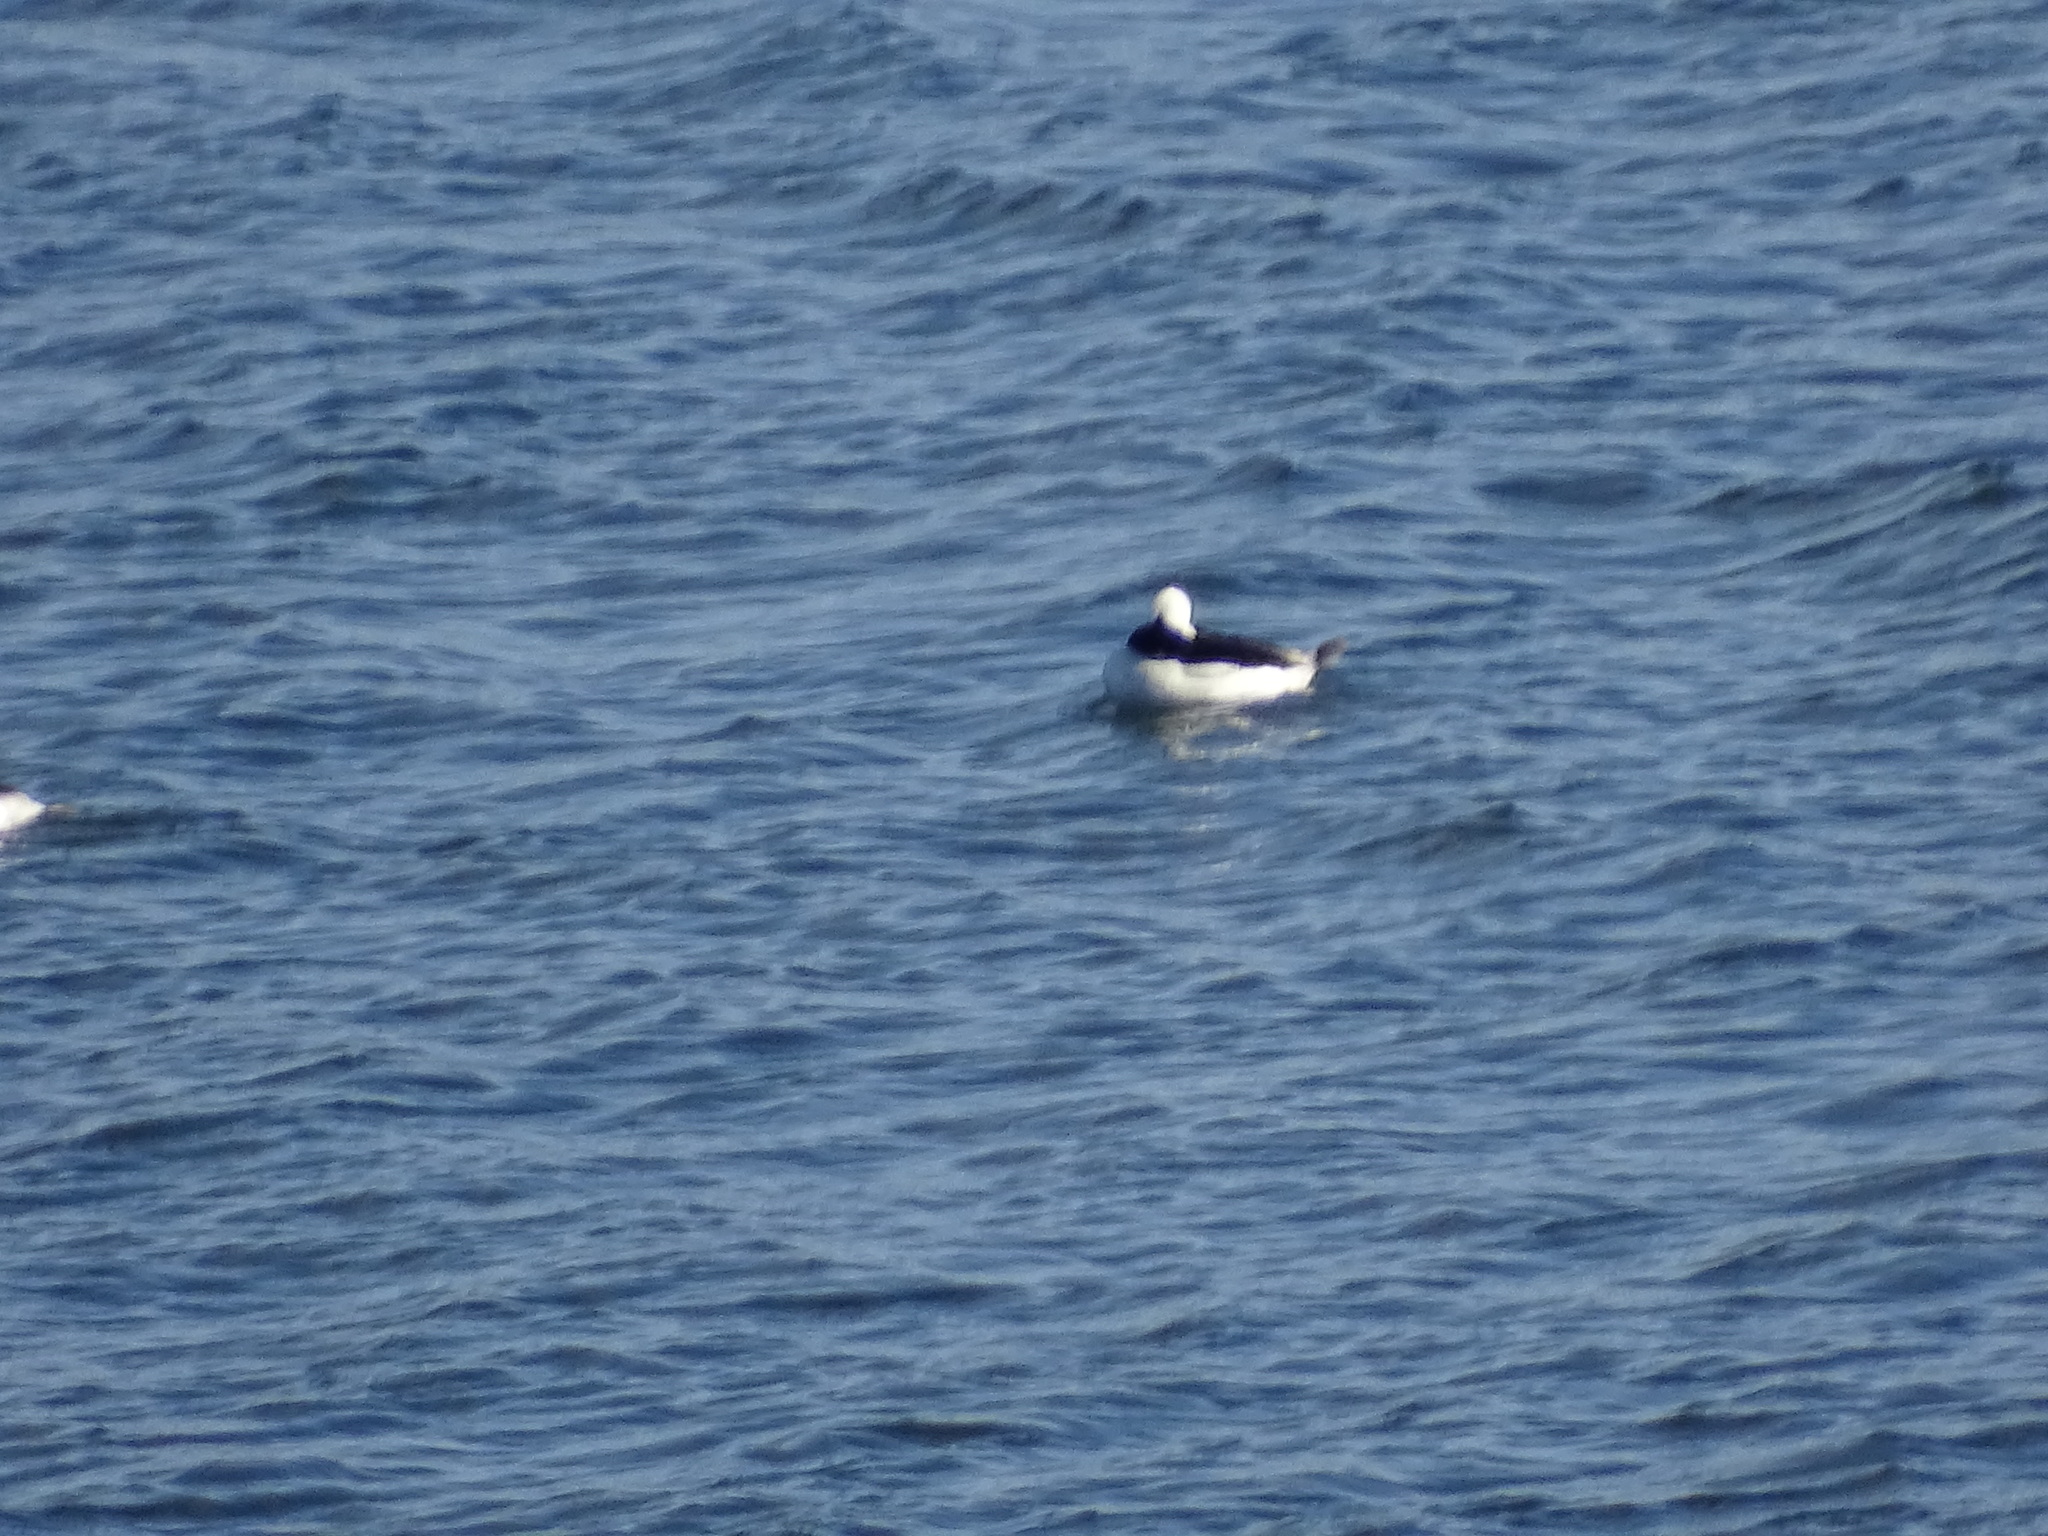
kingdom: Animalia
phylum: Chordata
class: Aves
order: Anseriformes
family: Anatidae
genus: Bucephala
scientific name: Bucephala albeola
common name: Bufflehead
